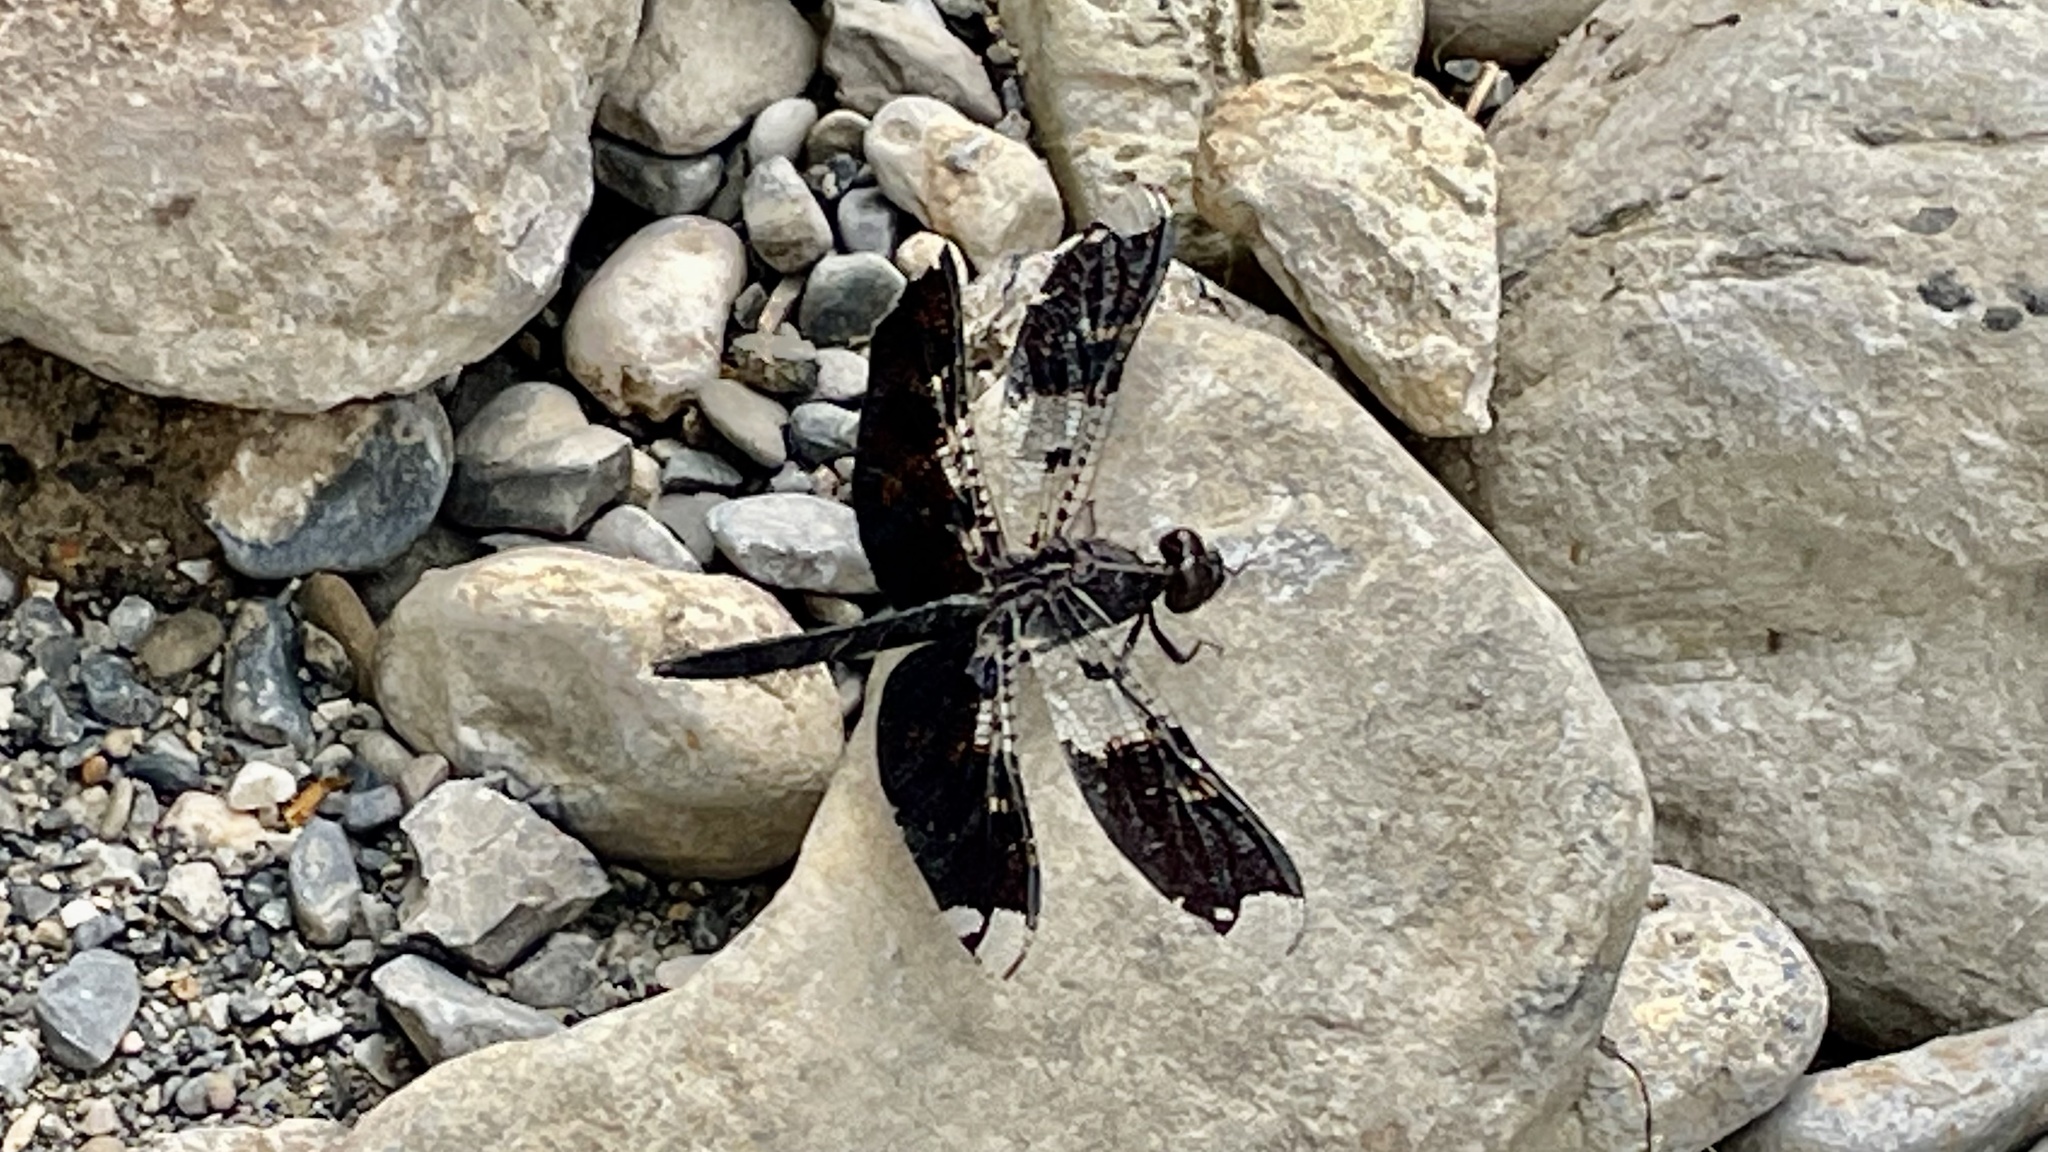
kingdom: Animalia
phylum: Arthropoda
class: Insecta
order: Odonata
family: Libellulidae
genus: Pseudoleon
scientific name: Pseudoleon superbus
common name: Filigree skimmer
